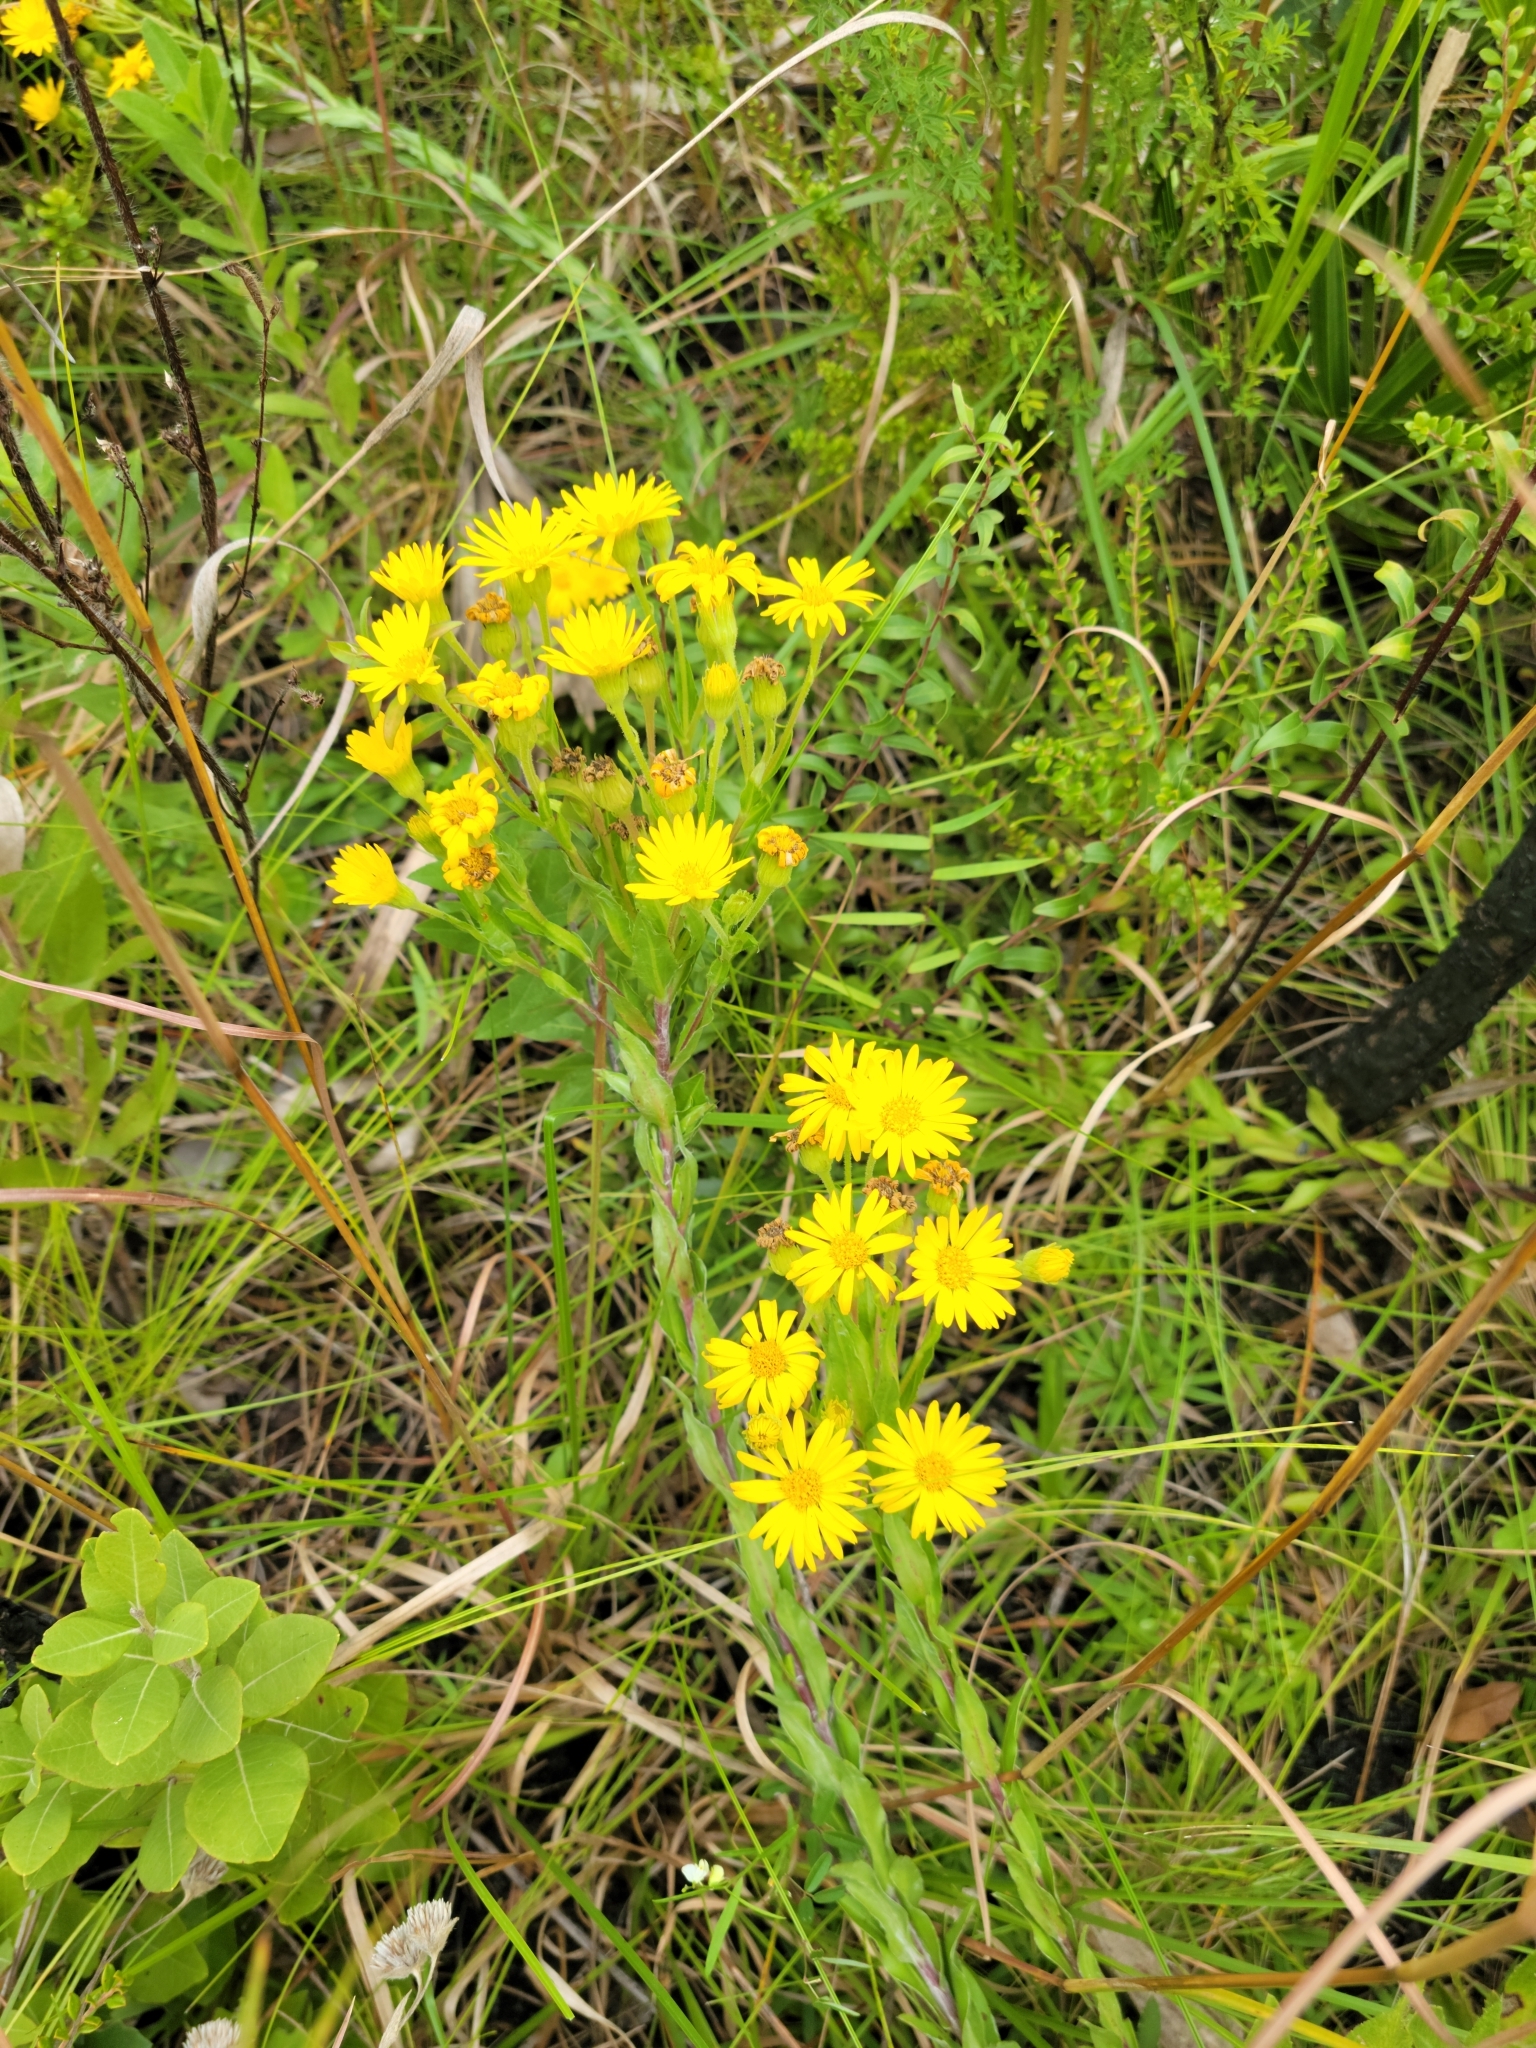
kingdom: Plantae
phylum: Tracheophyta
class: Magnoliopsida
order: Asterales
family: Asteraceae
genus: Chrysopsis
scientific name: Chrysopsis mariana
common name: Maryland golden-aster
